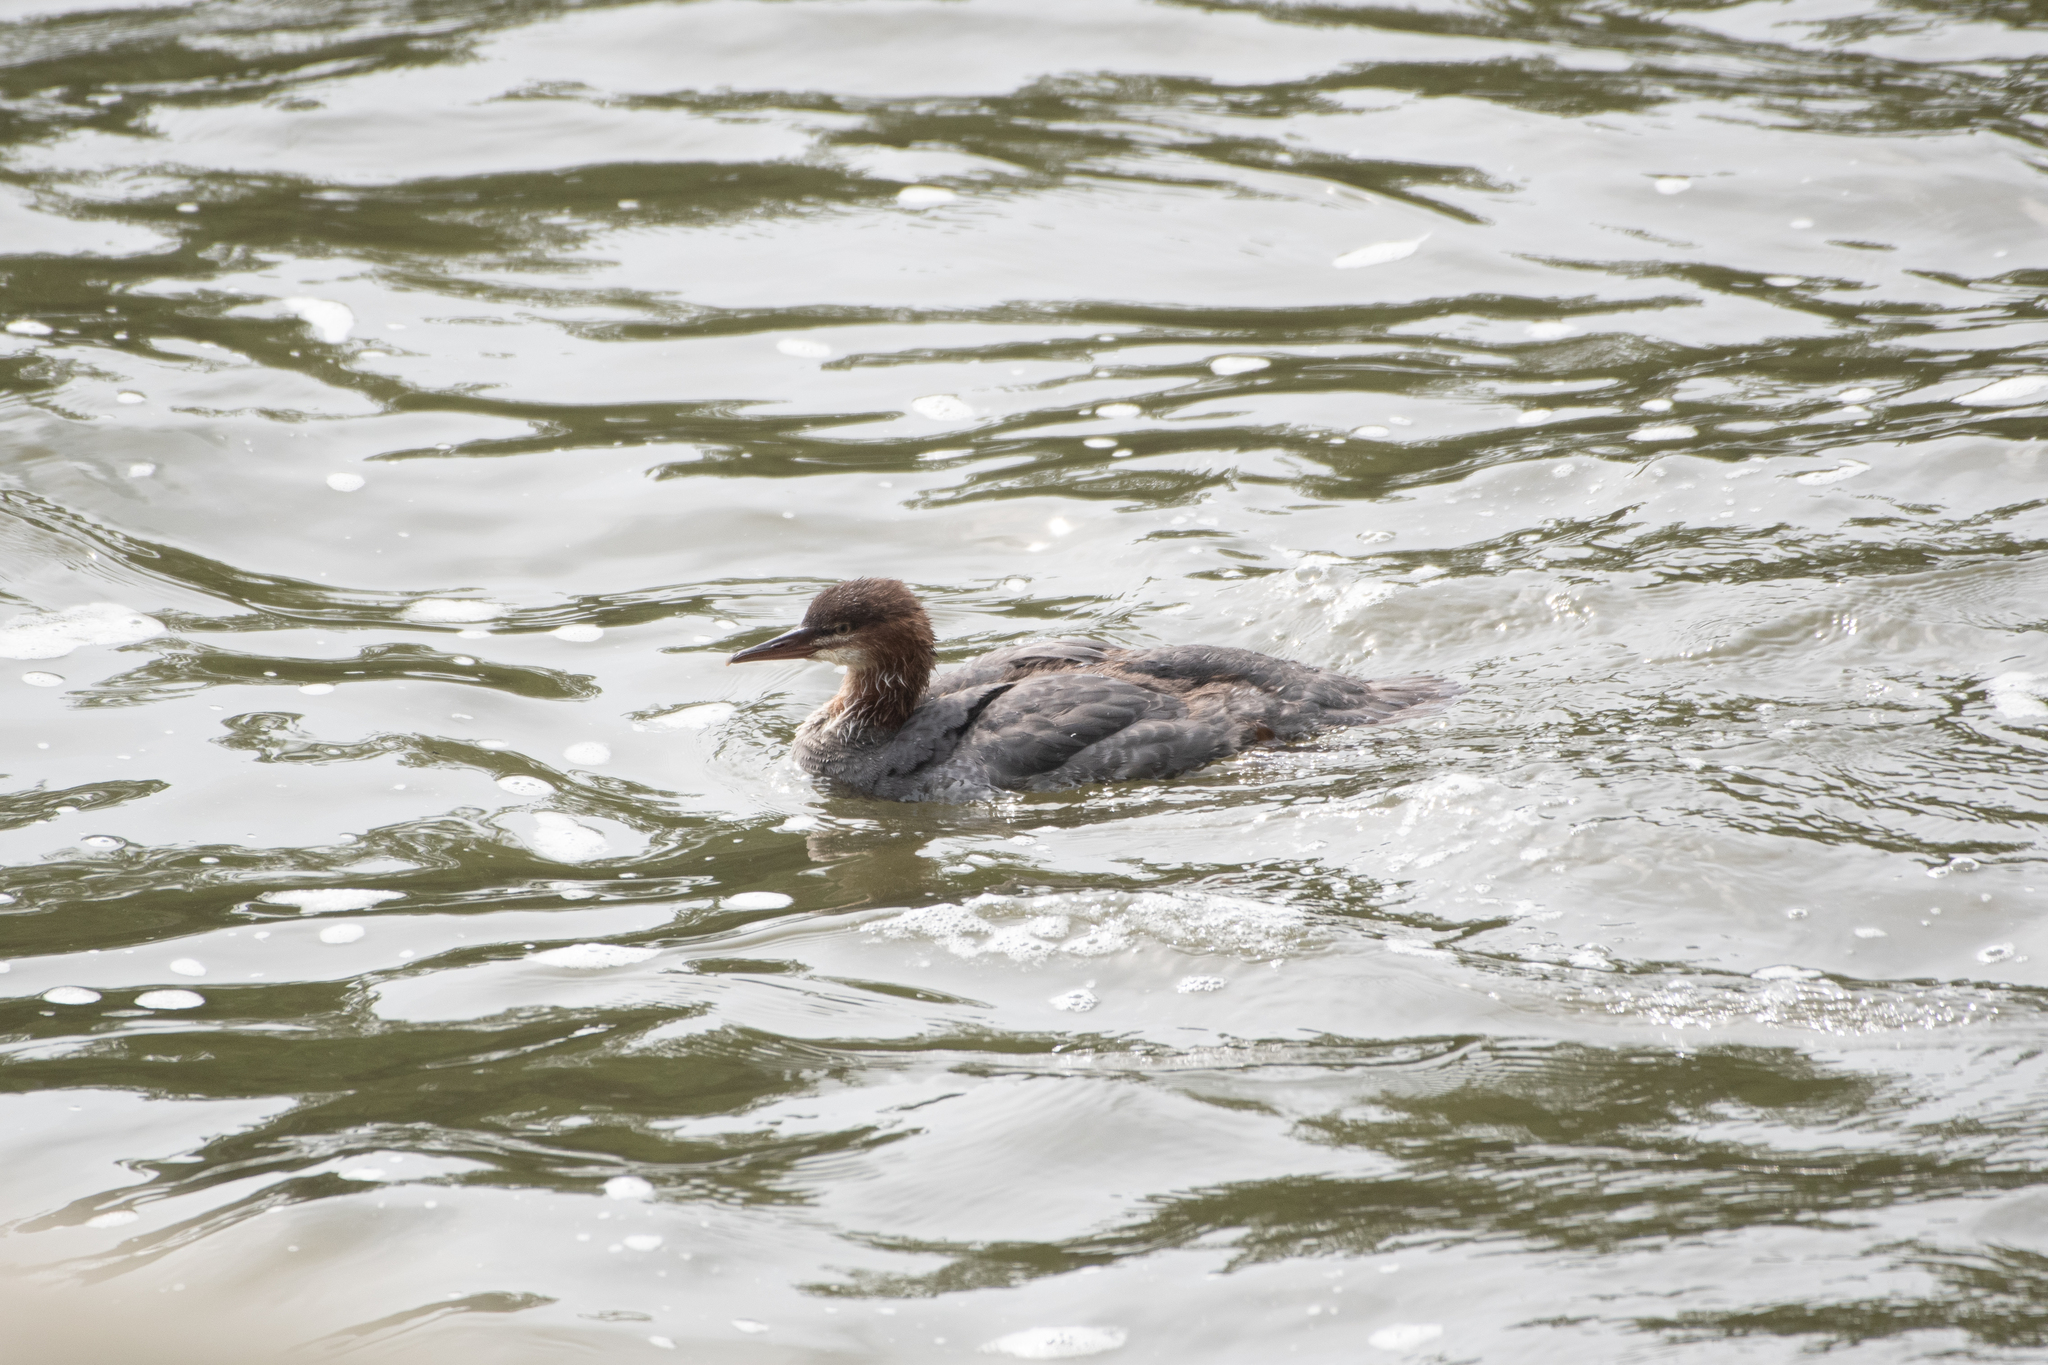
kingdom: Animalia
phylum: Chordata
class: Aves
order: Anseriformes
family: Anatidae
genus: Mergus
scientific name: Mergus merganser
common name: Common merganser
